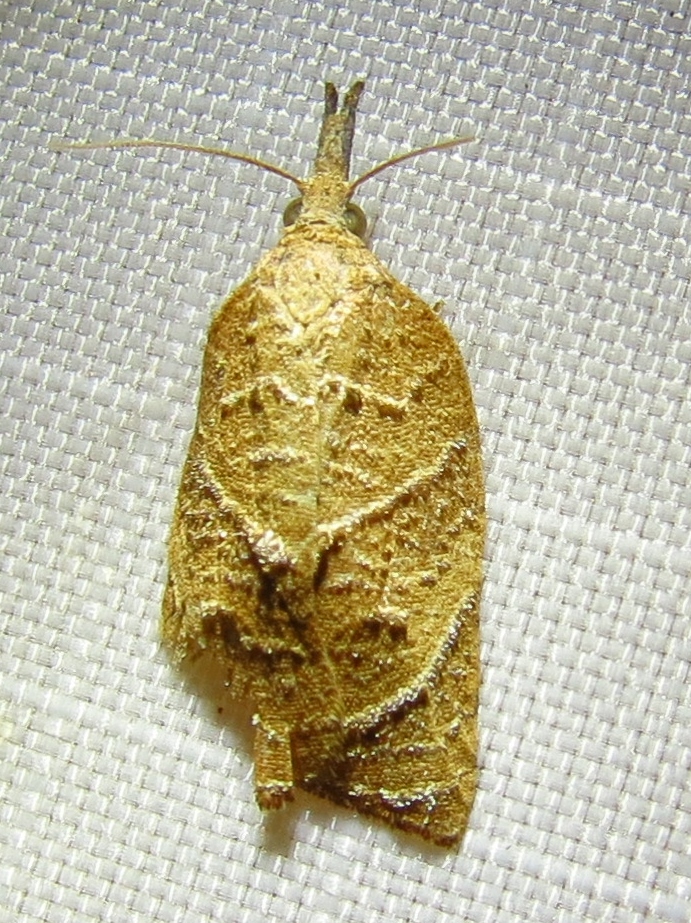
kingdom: Animalia
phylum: Arthropoda
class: Insecta
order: Lepidoptera
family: Tortricidae
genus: Platynota
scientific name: Platynota rostrana
